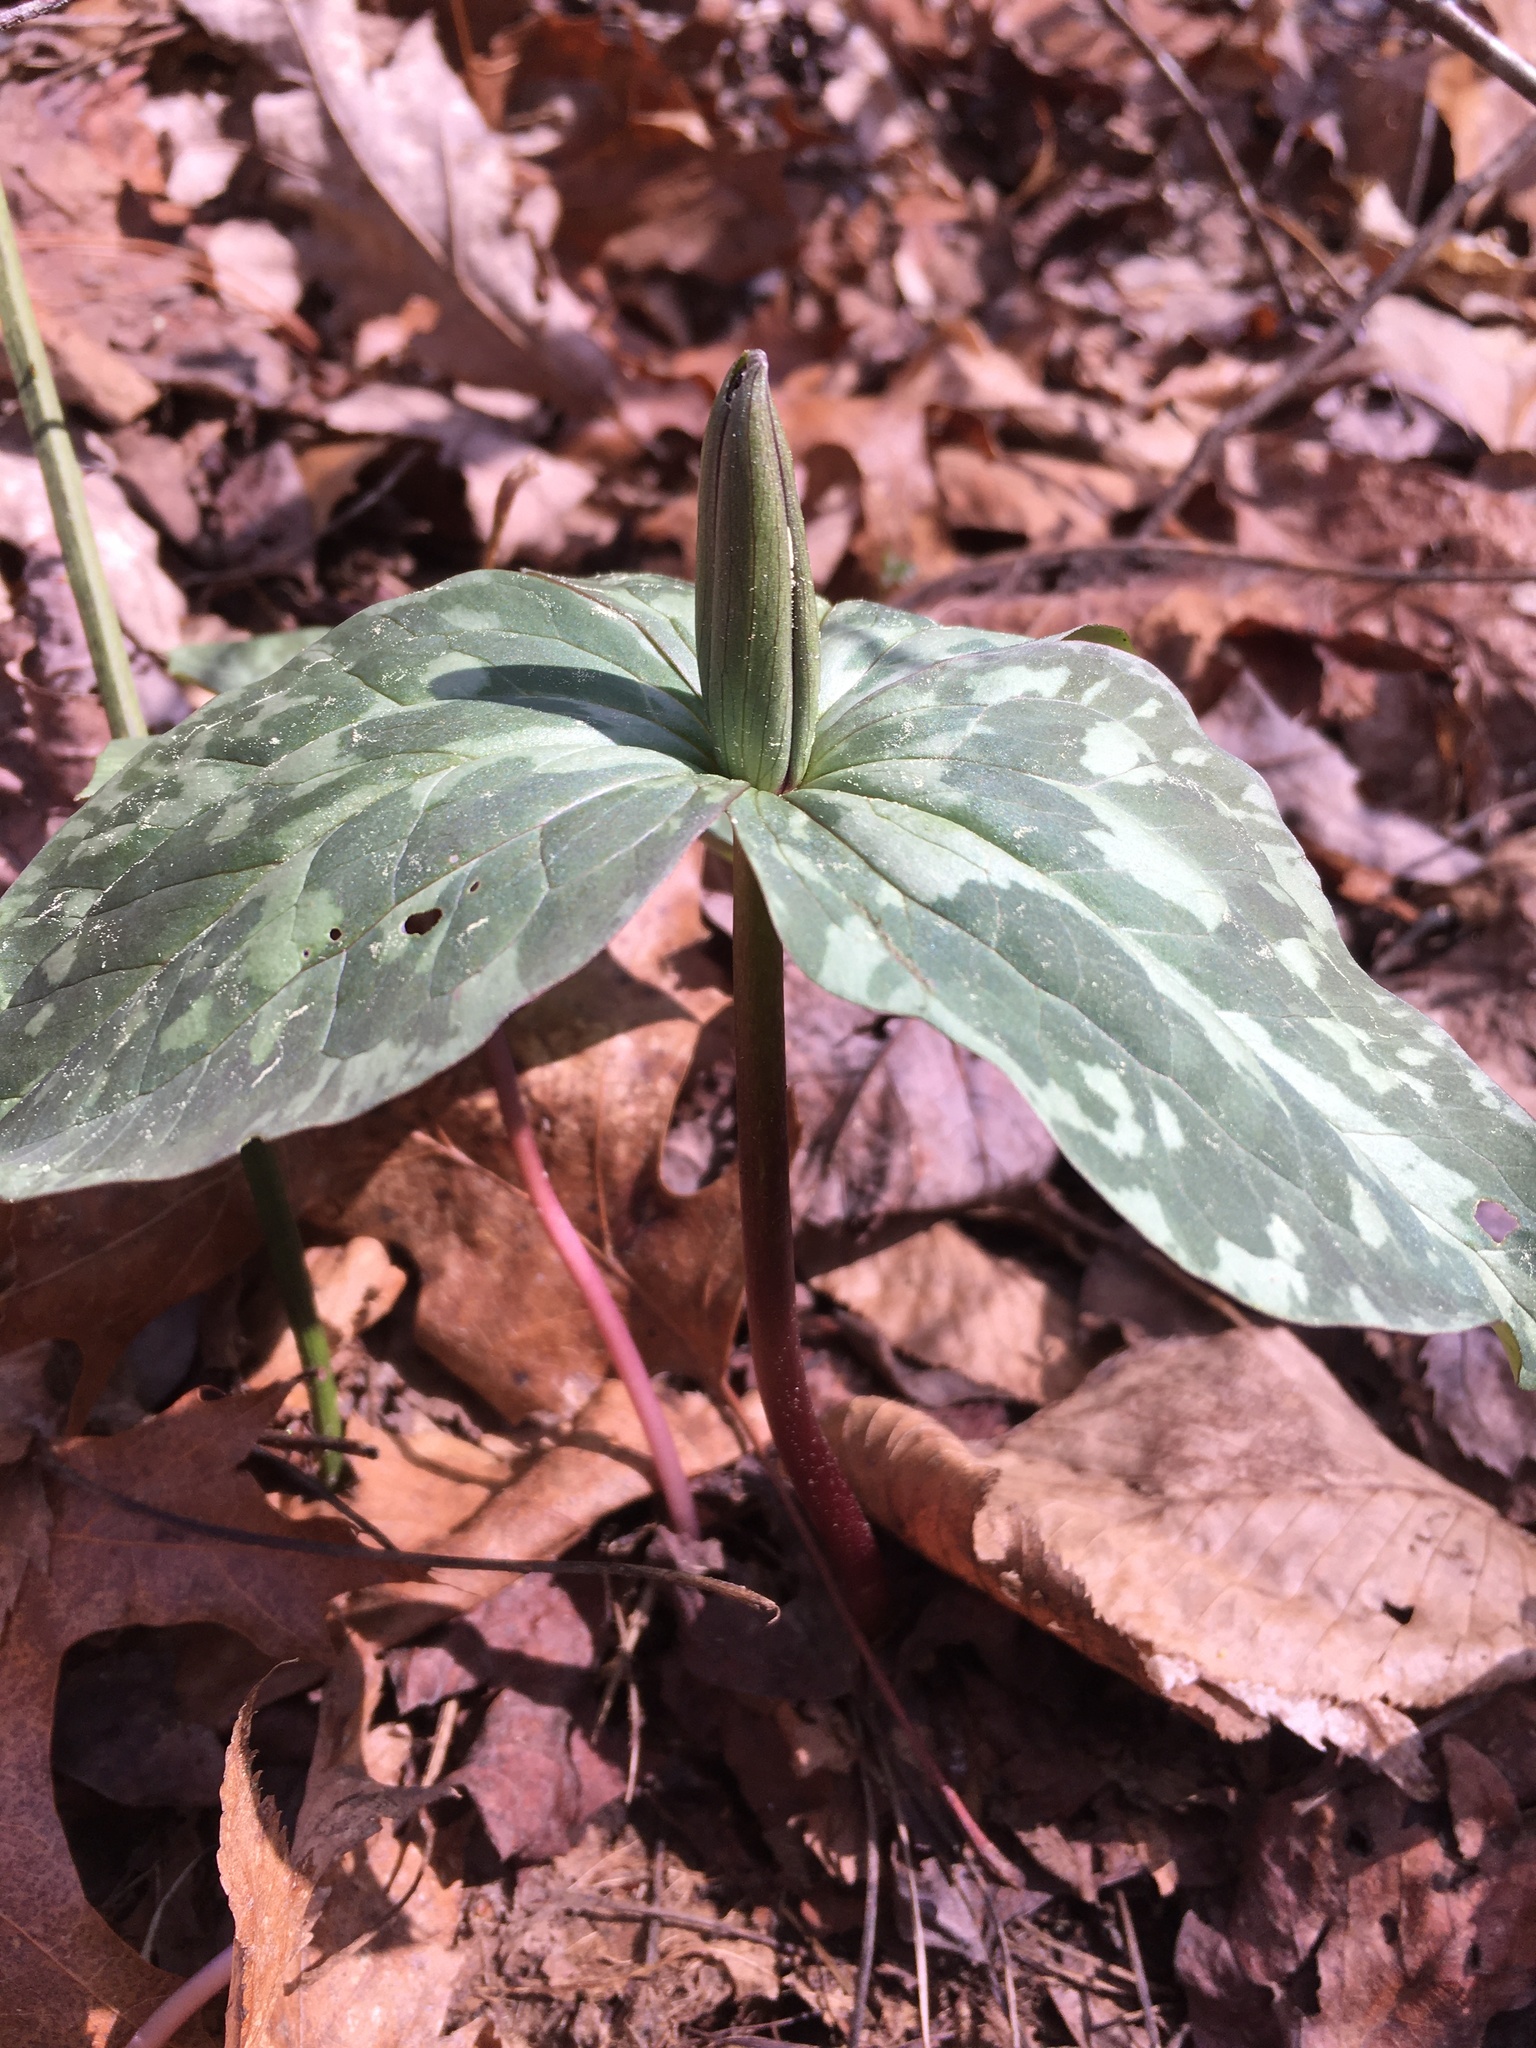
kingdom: Plantae
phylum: Tracheophyta
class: Liliopsida
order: Liliales
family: Melanthiaceae
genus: Trillium
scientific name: Trillium cuneatum
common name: Cuneate trillium
